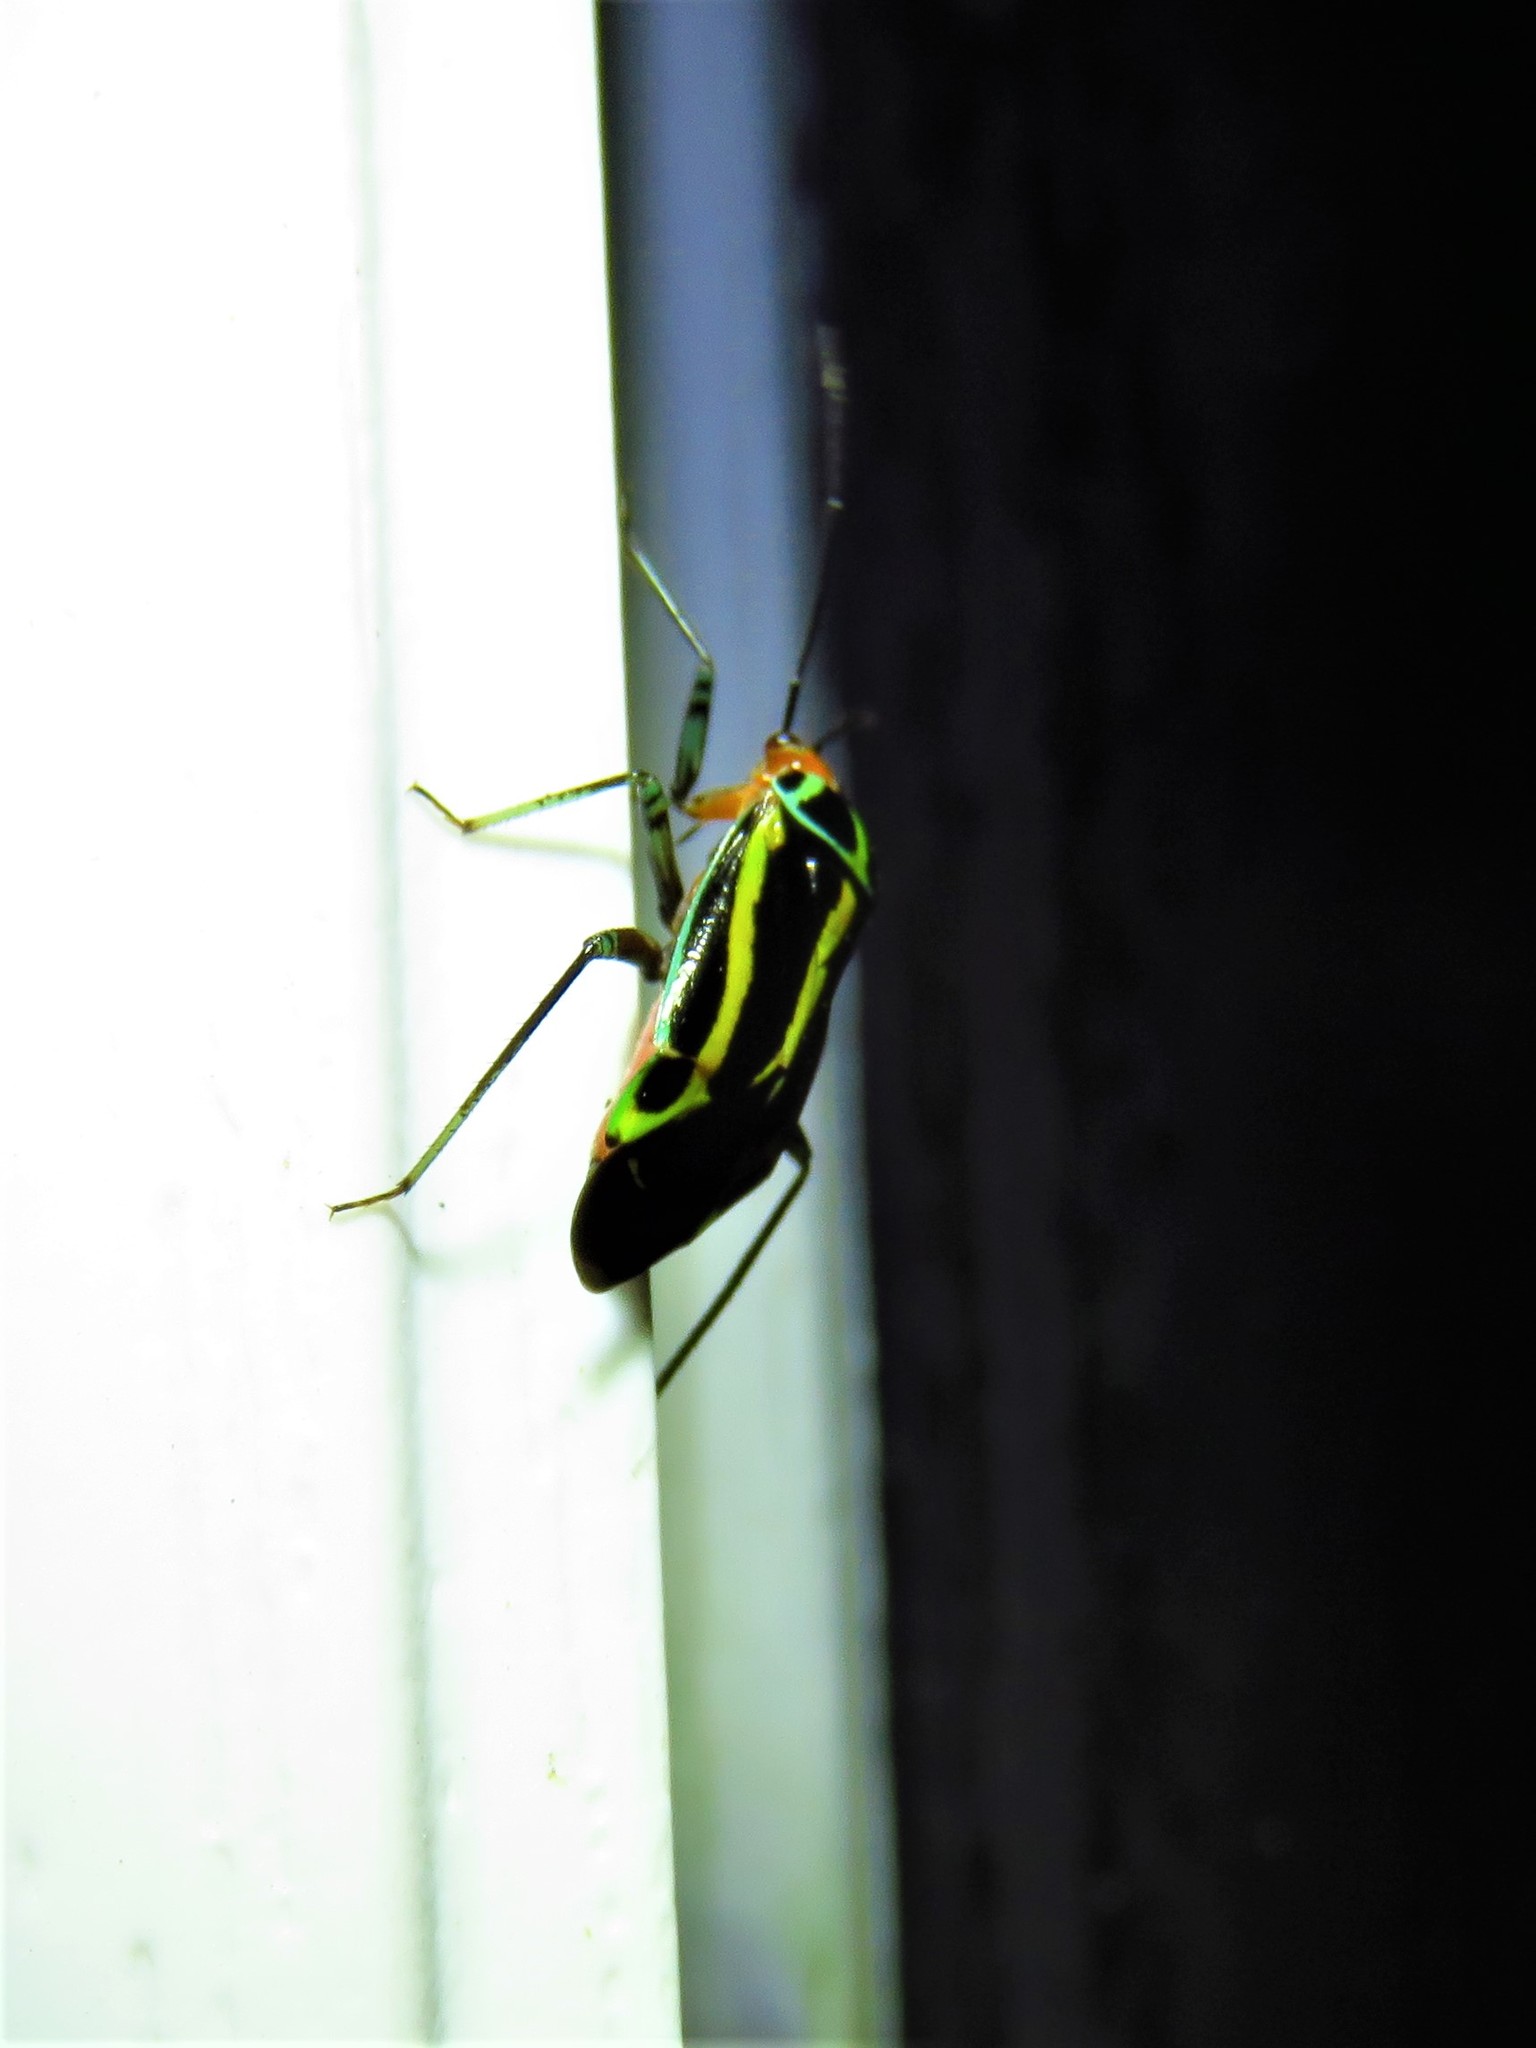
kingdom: Animalia
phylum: Arthropoda
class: Insecta
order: Hemiptera
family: Miridae
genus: Poecilocapsus
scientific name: Poecilocapsus lineatus
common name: Four-lined plant bug
